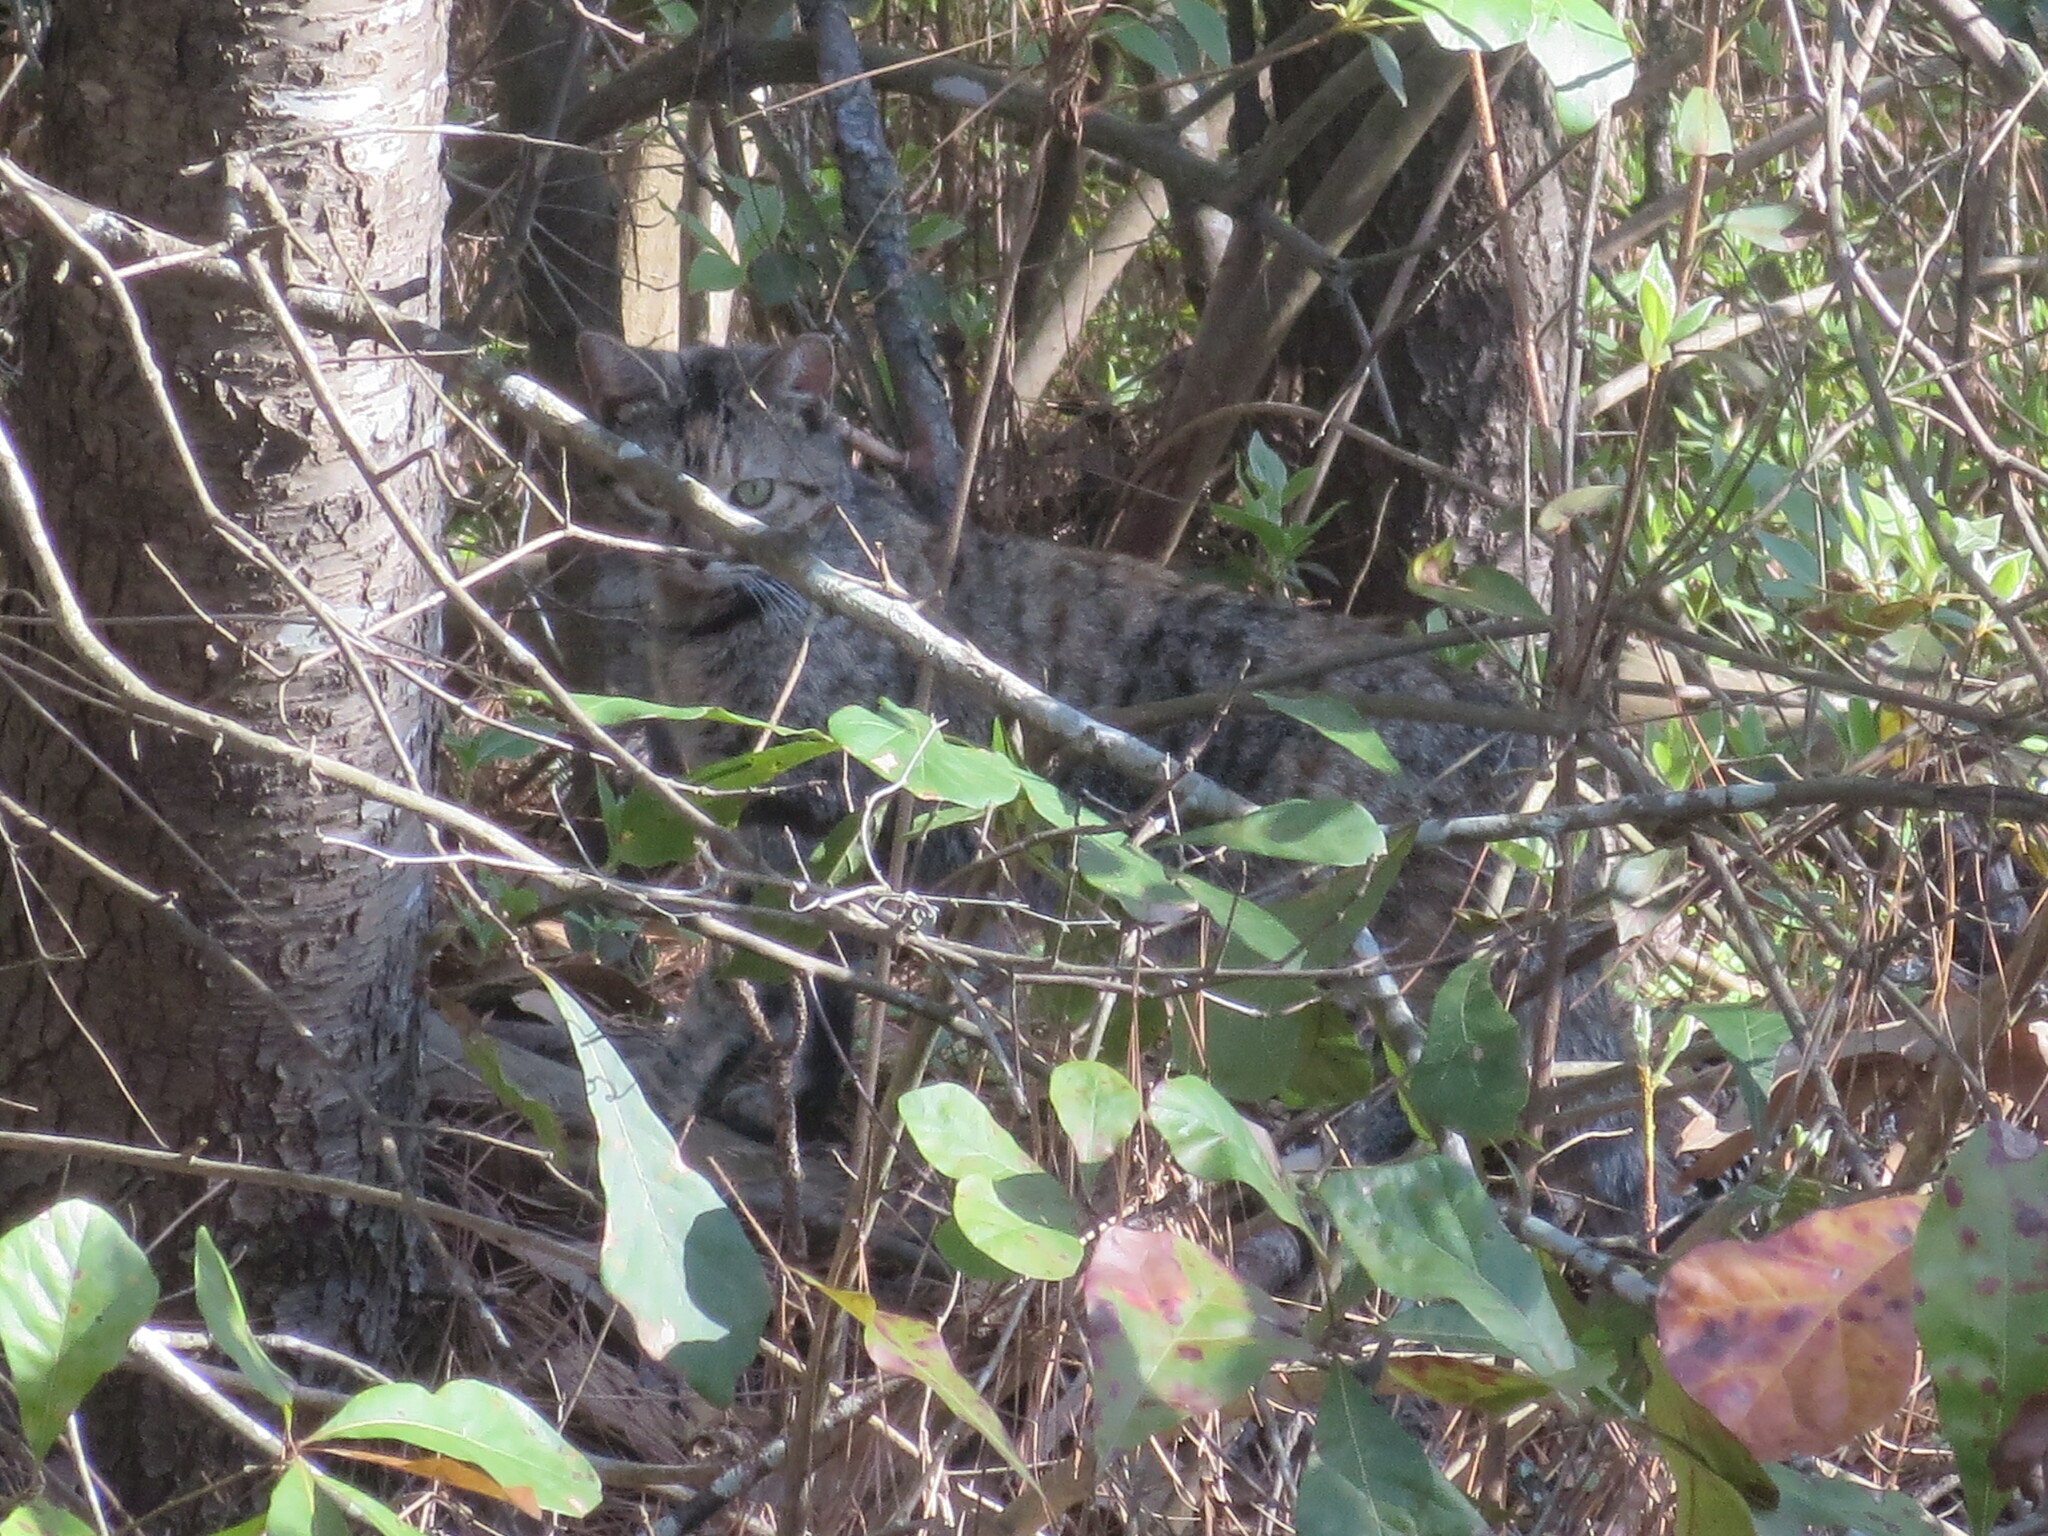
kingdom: Animalia
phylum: Chordata
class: Mammalia
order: Carnivora
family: Felidae
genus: Felis
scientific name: Felis catus
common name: Domestic cat
